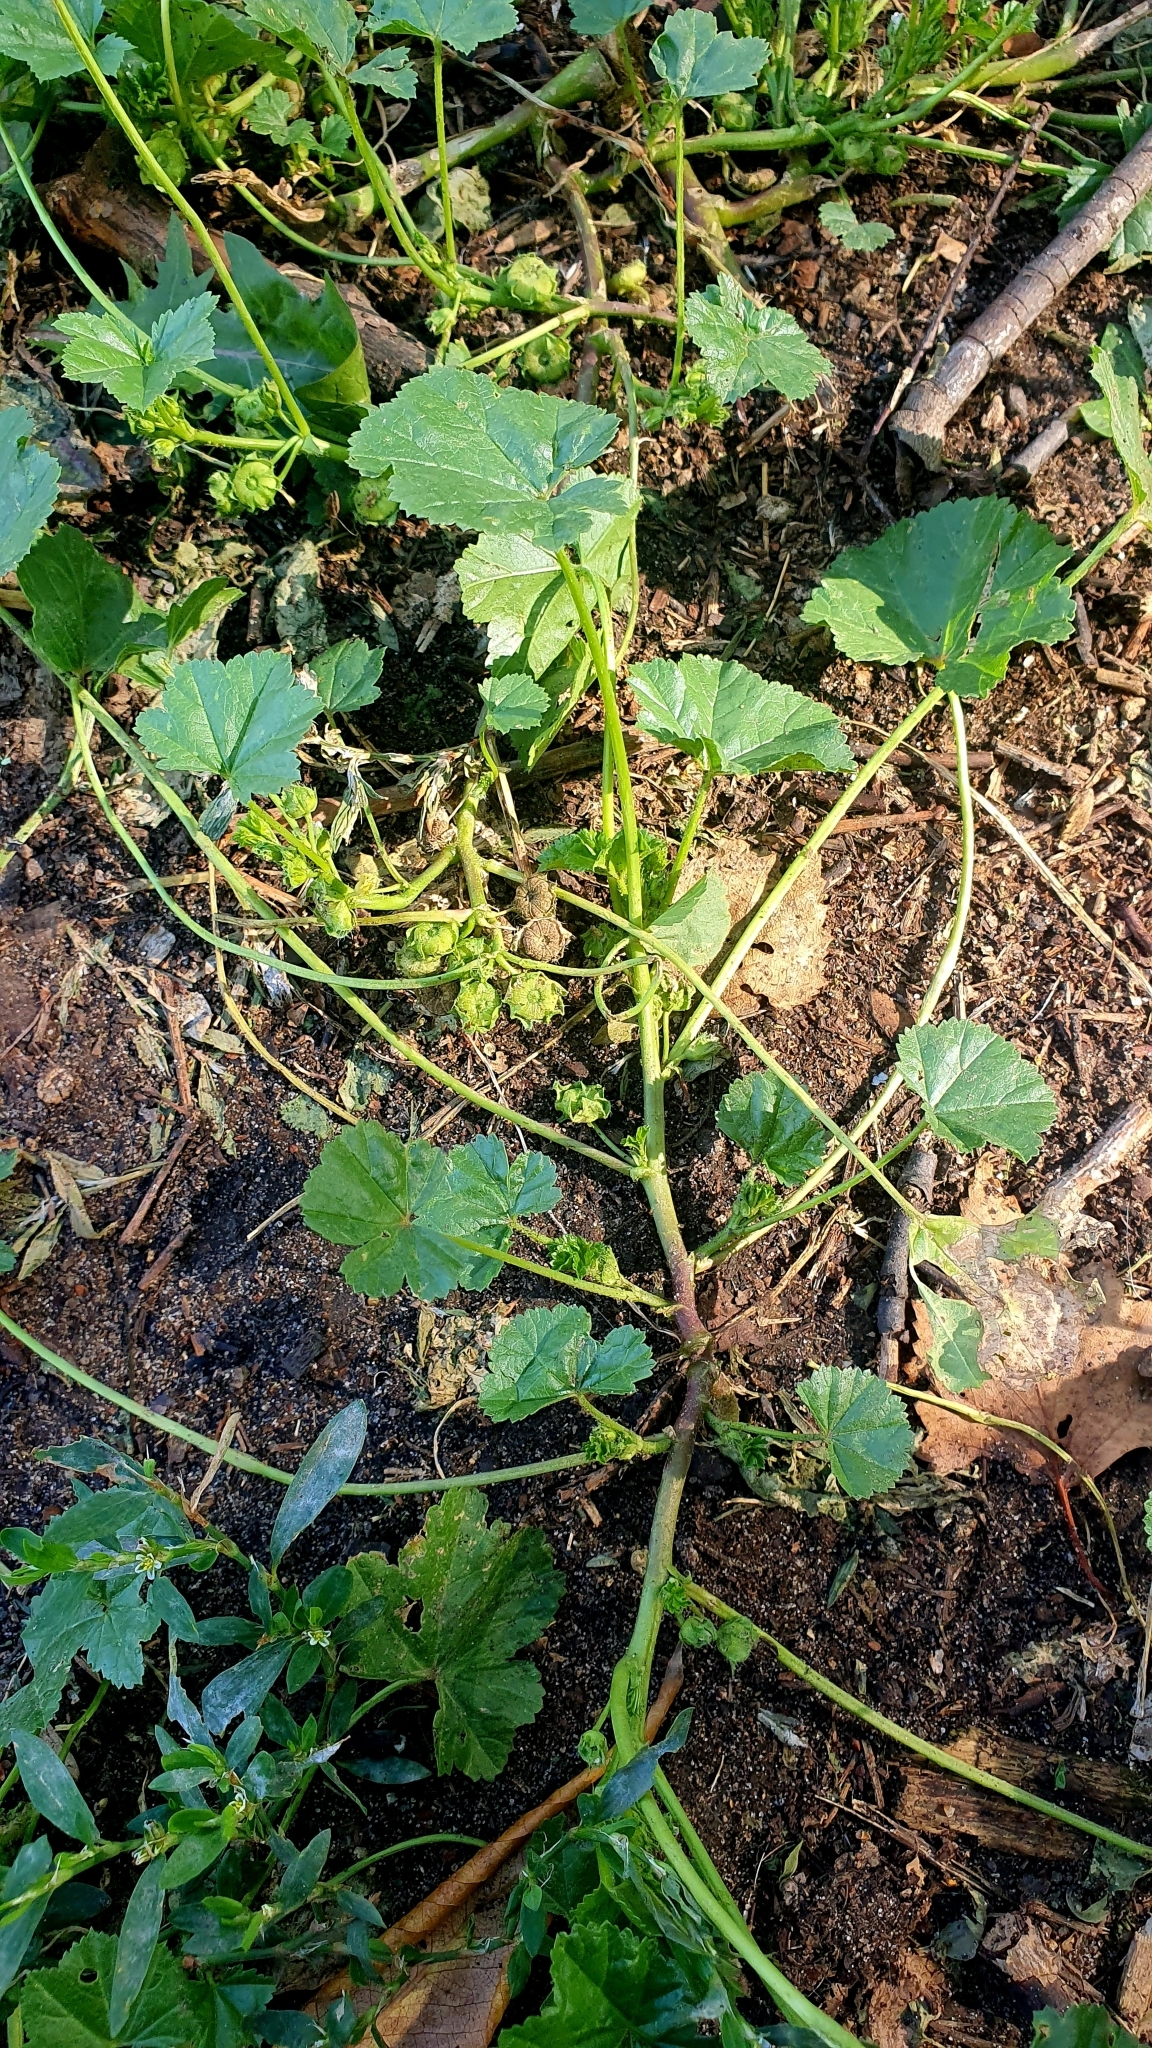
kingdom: Plantae
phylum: Tracheophyta
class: Magnoliopsida
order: Malvales
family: Malvaceae
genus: Malva
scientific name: Malva pusilla
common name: Small mallow
